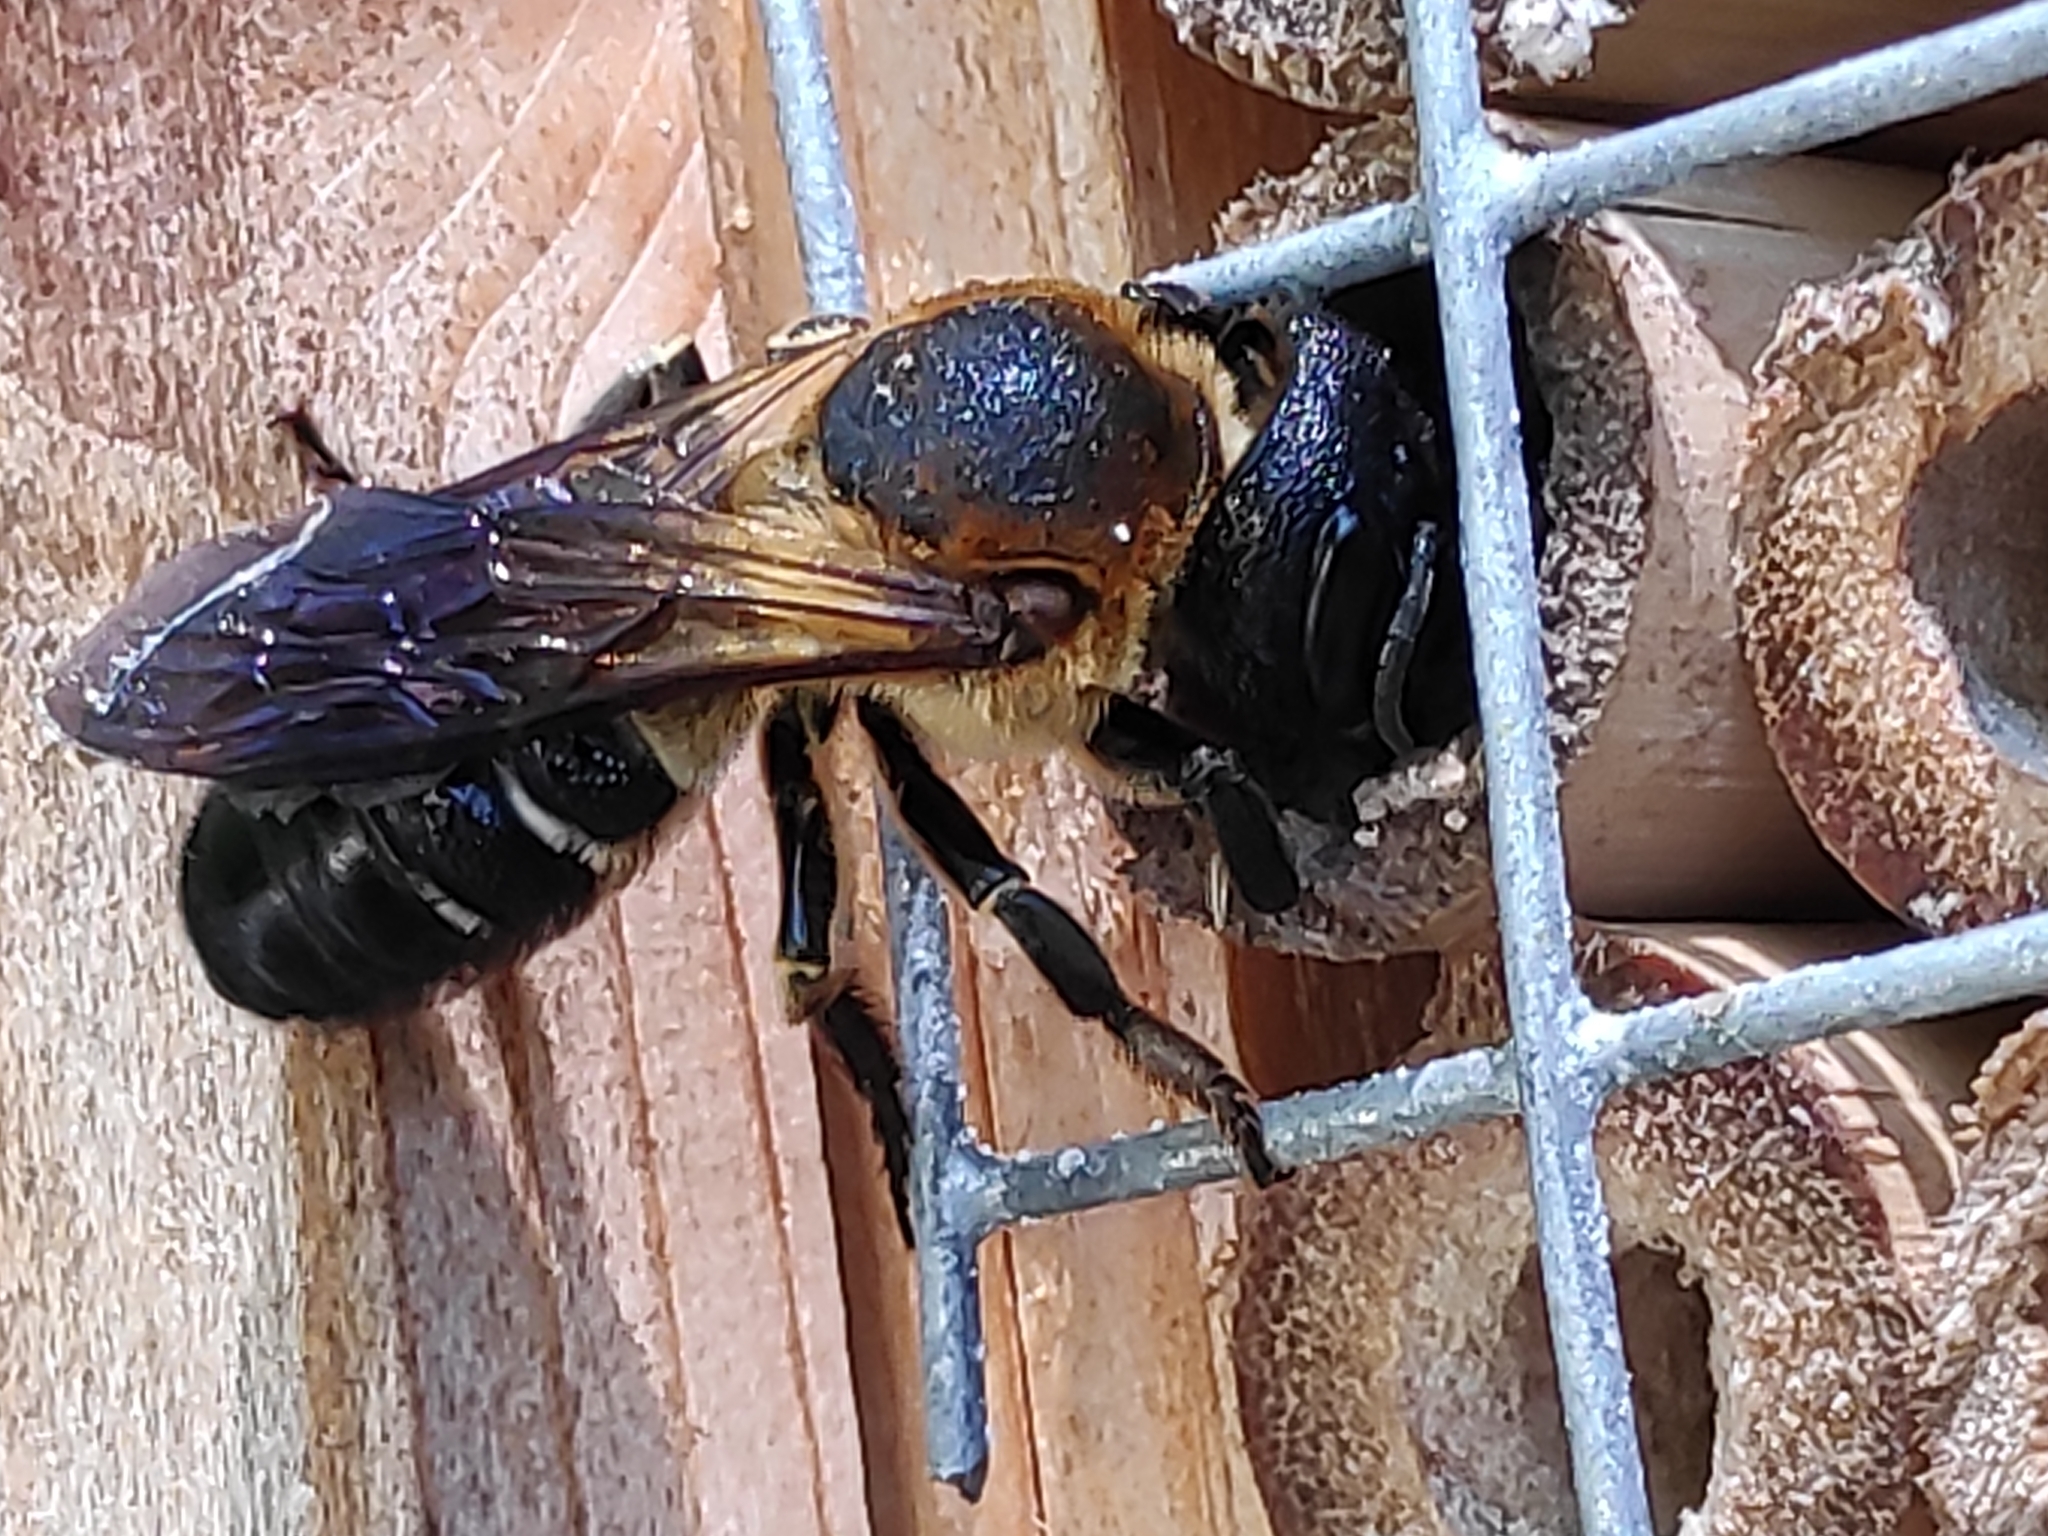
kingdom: Animalia
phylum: Arthropoda
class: Insecta
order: Hymenoptera
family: Megachilidae
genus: Megachile
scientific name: Megachile sculpturalis
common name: Sculptured resin bee
